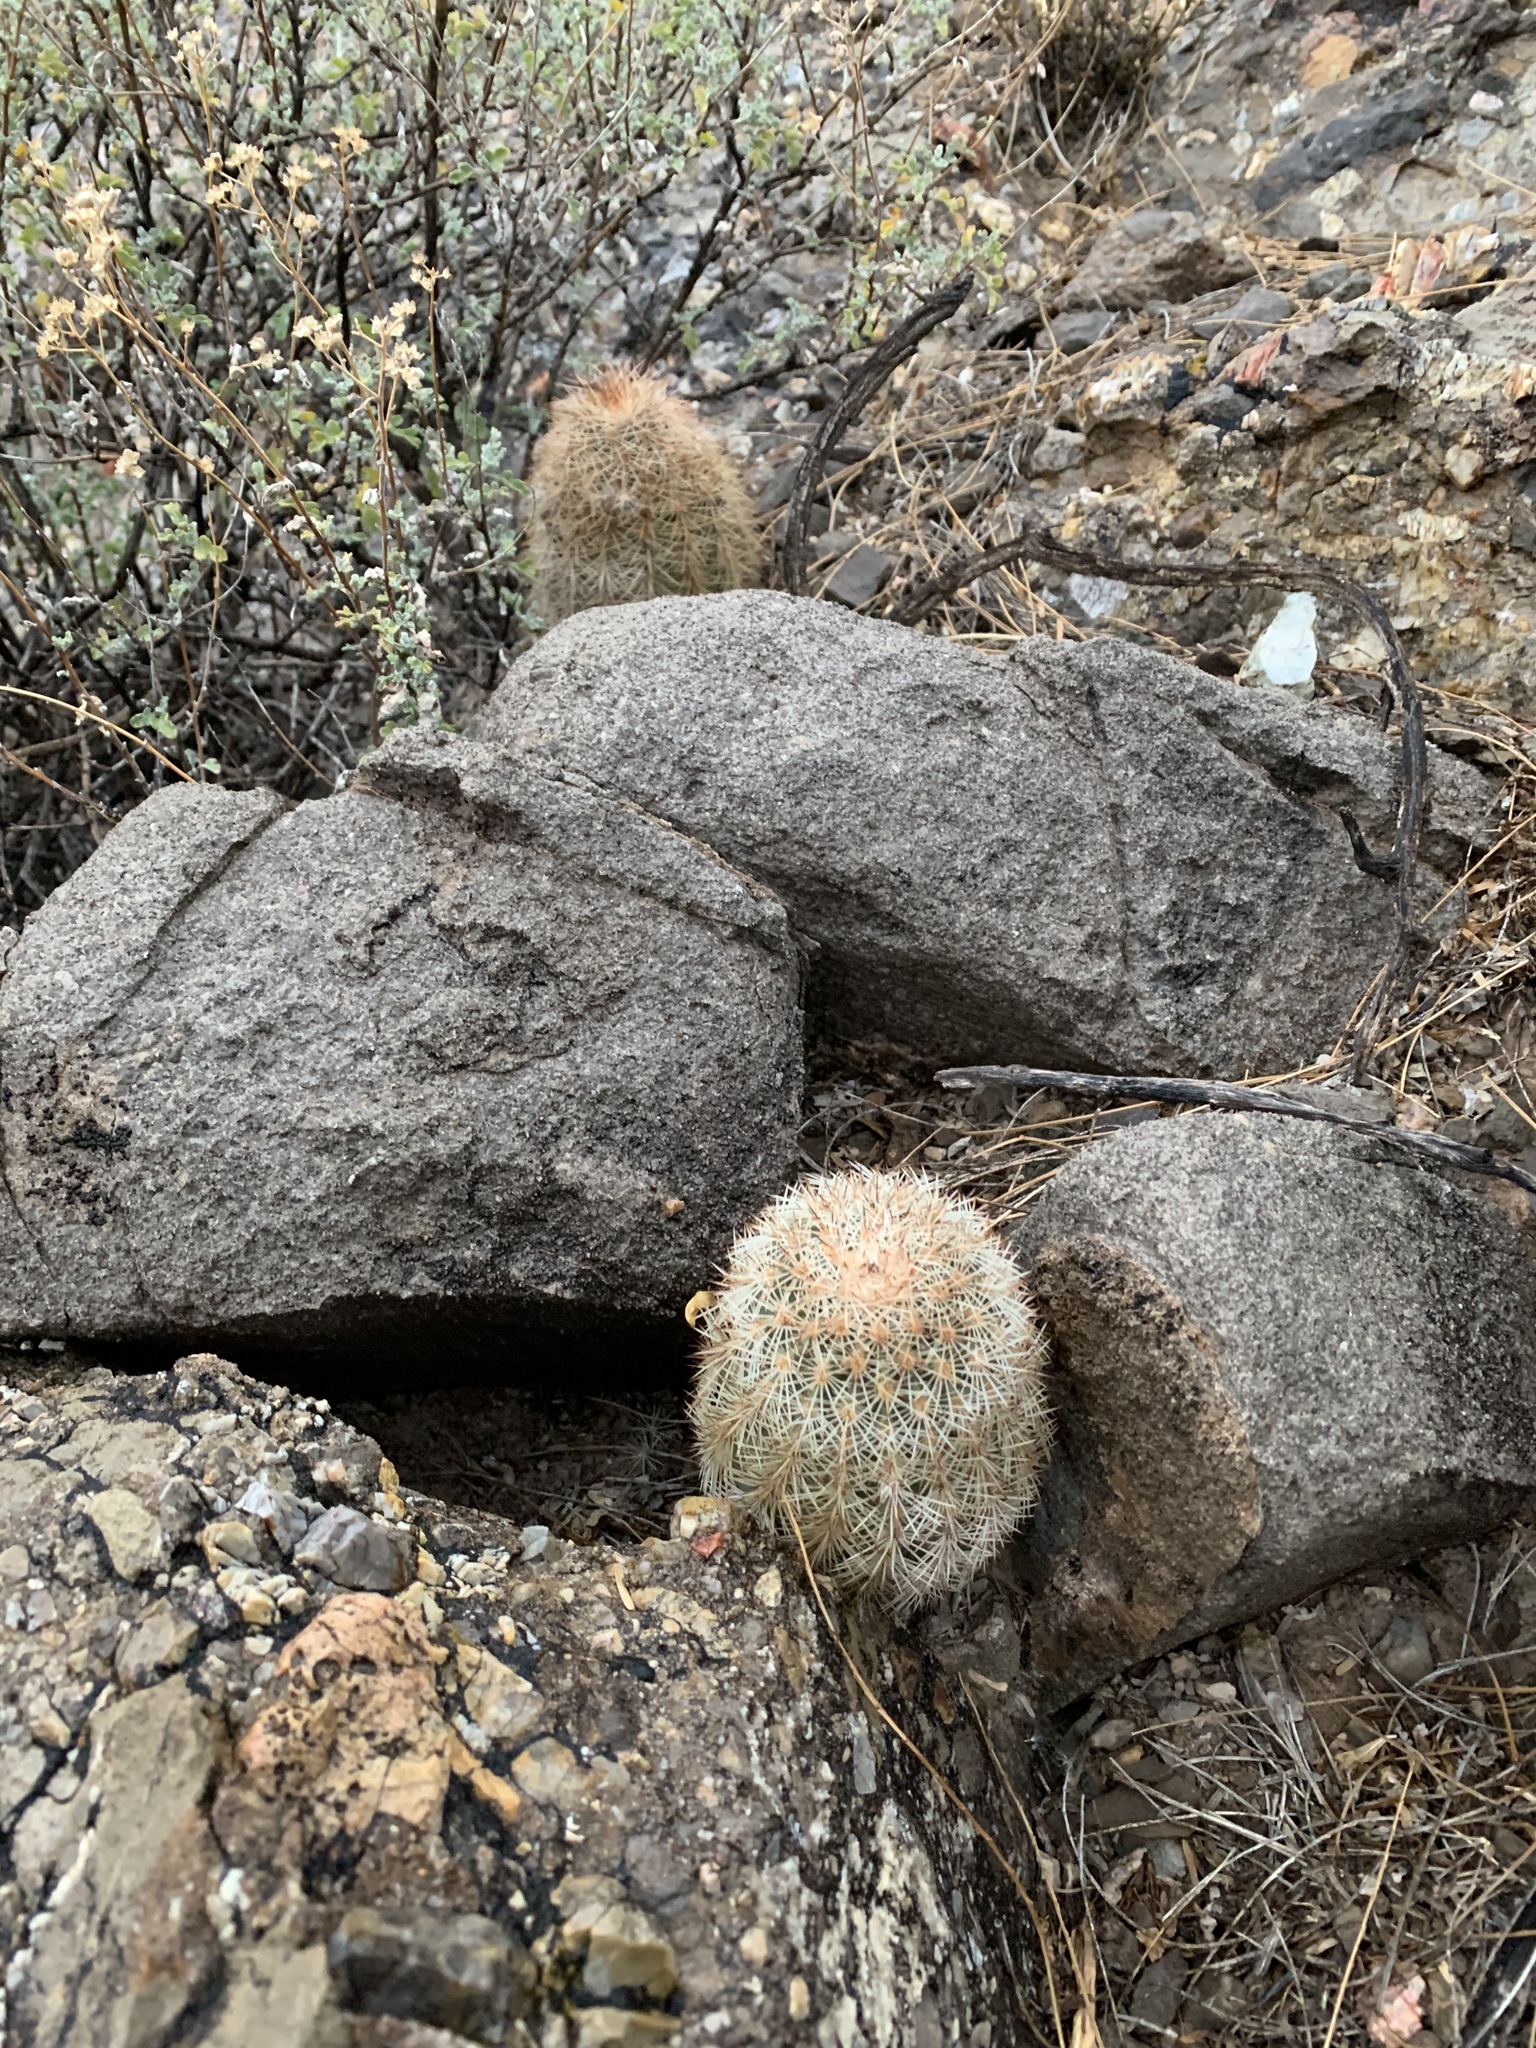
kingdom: Plantae
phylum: Tracheophyta
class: Magnoliopsida
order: Caryophyllales
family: Cactaceae
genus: Echinocereus
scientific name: Echinocereus dasyacanthus
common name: Spiny hedgehog cactus
